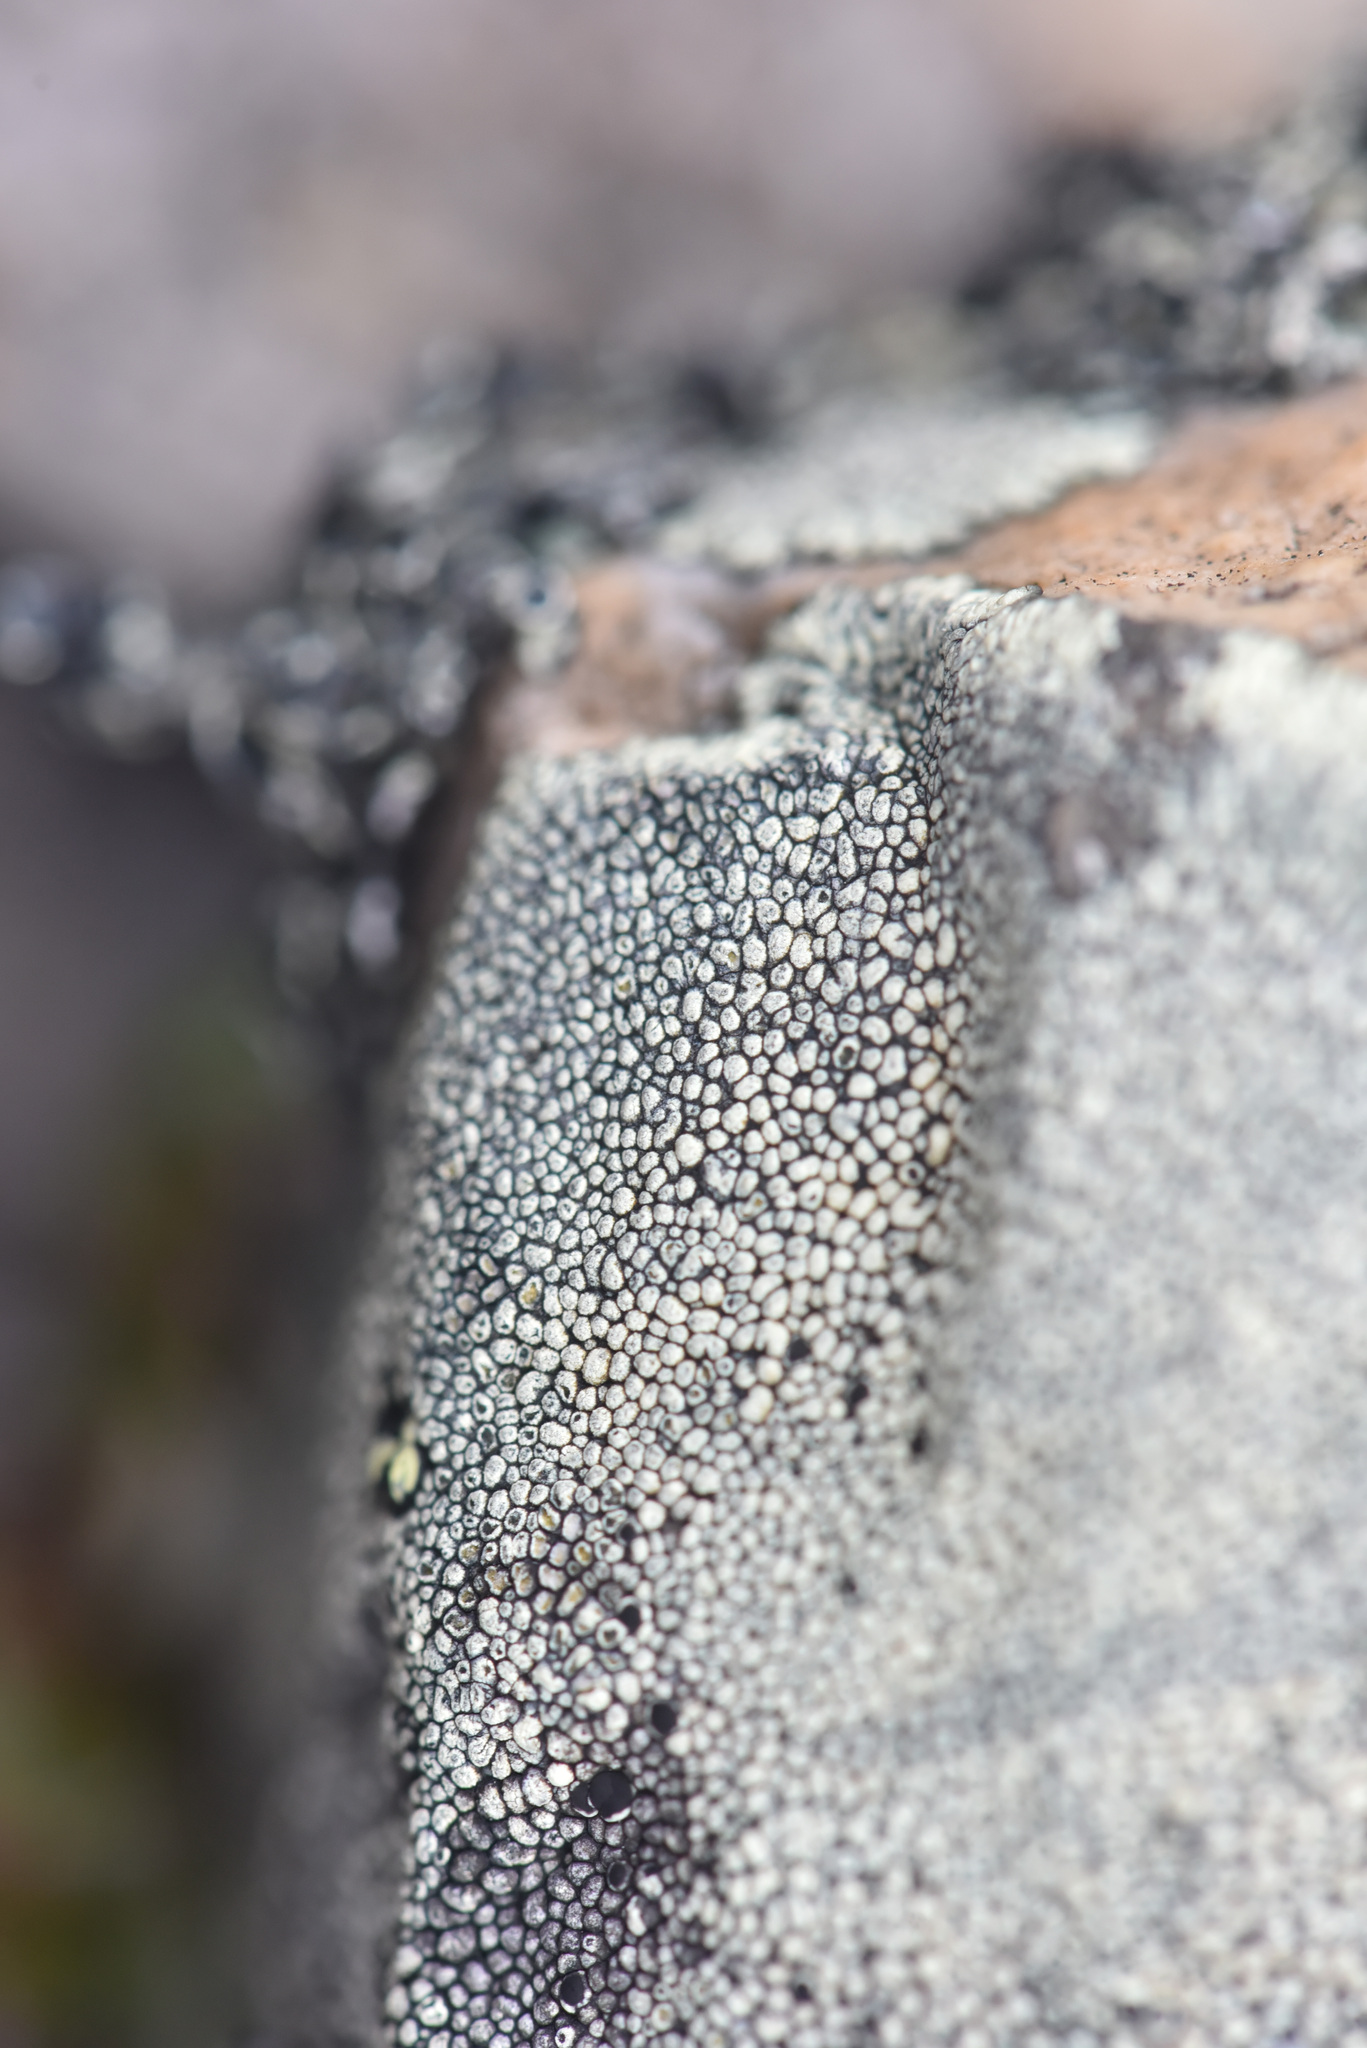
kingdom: Fungi
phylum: Ascomycota
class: Lecanoromycetes
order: Caliciales
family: Caliciaceae
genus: Dimelaena
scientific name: Dimelaena oreina
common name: Golden moonglow lichen
